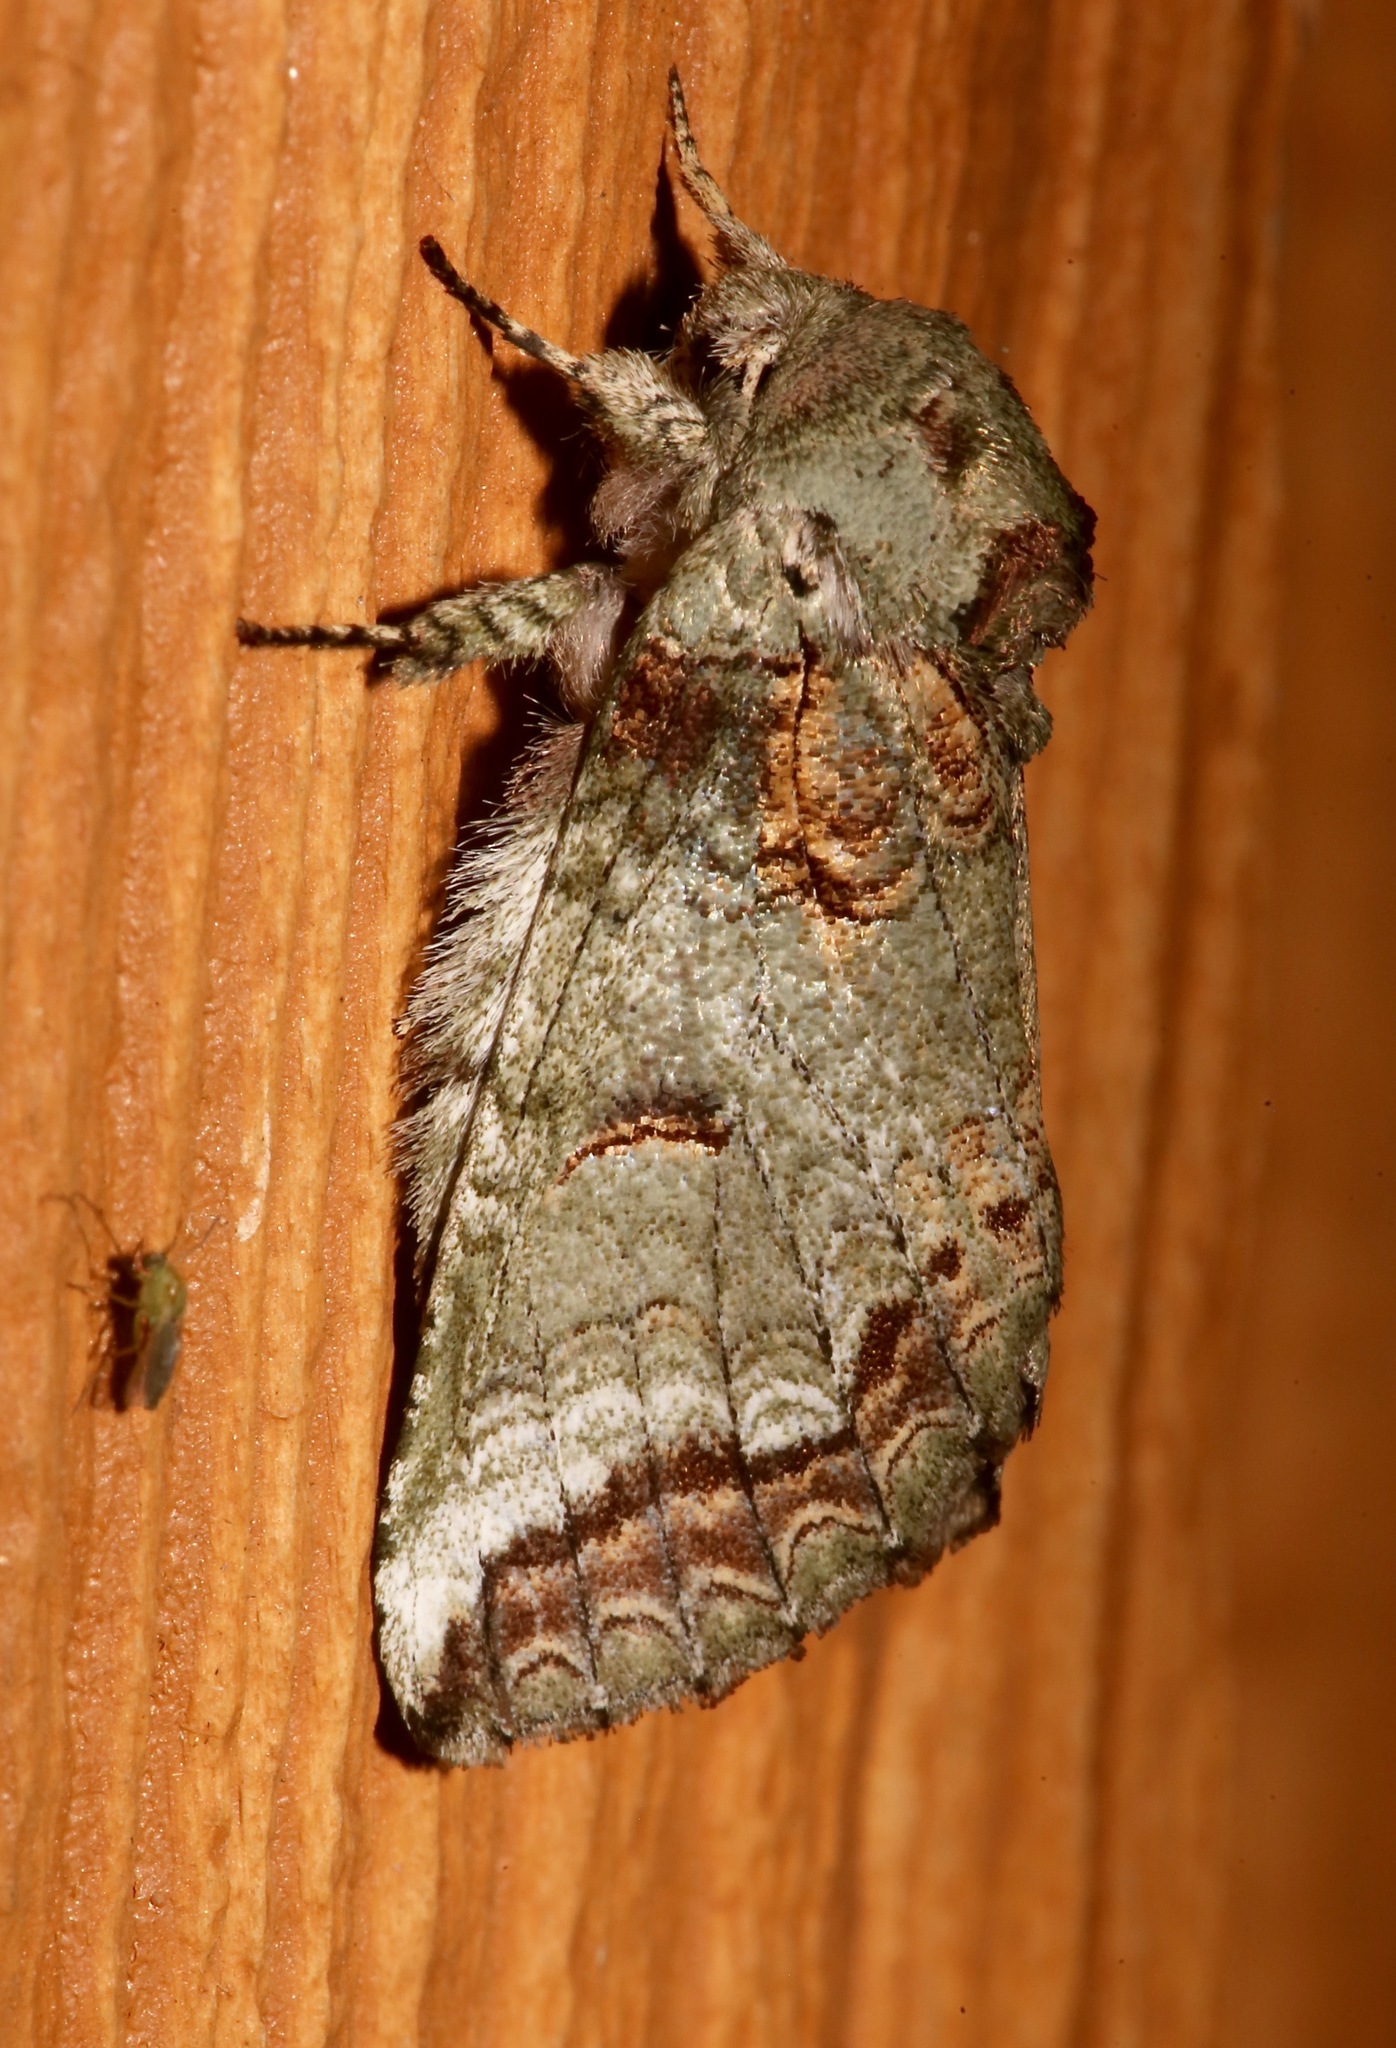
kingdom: Animalia
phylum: Arthropoda
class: Insecta
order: Lepidoptera
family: Notodontidae
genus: Heterocampa
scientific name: Heterocampa astarte
